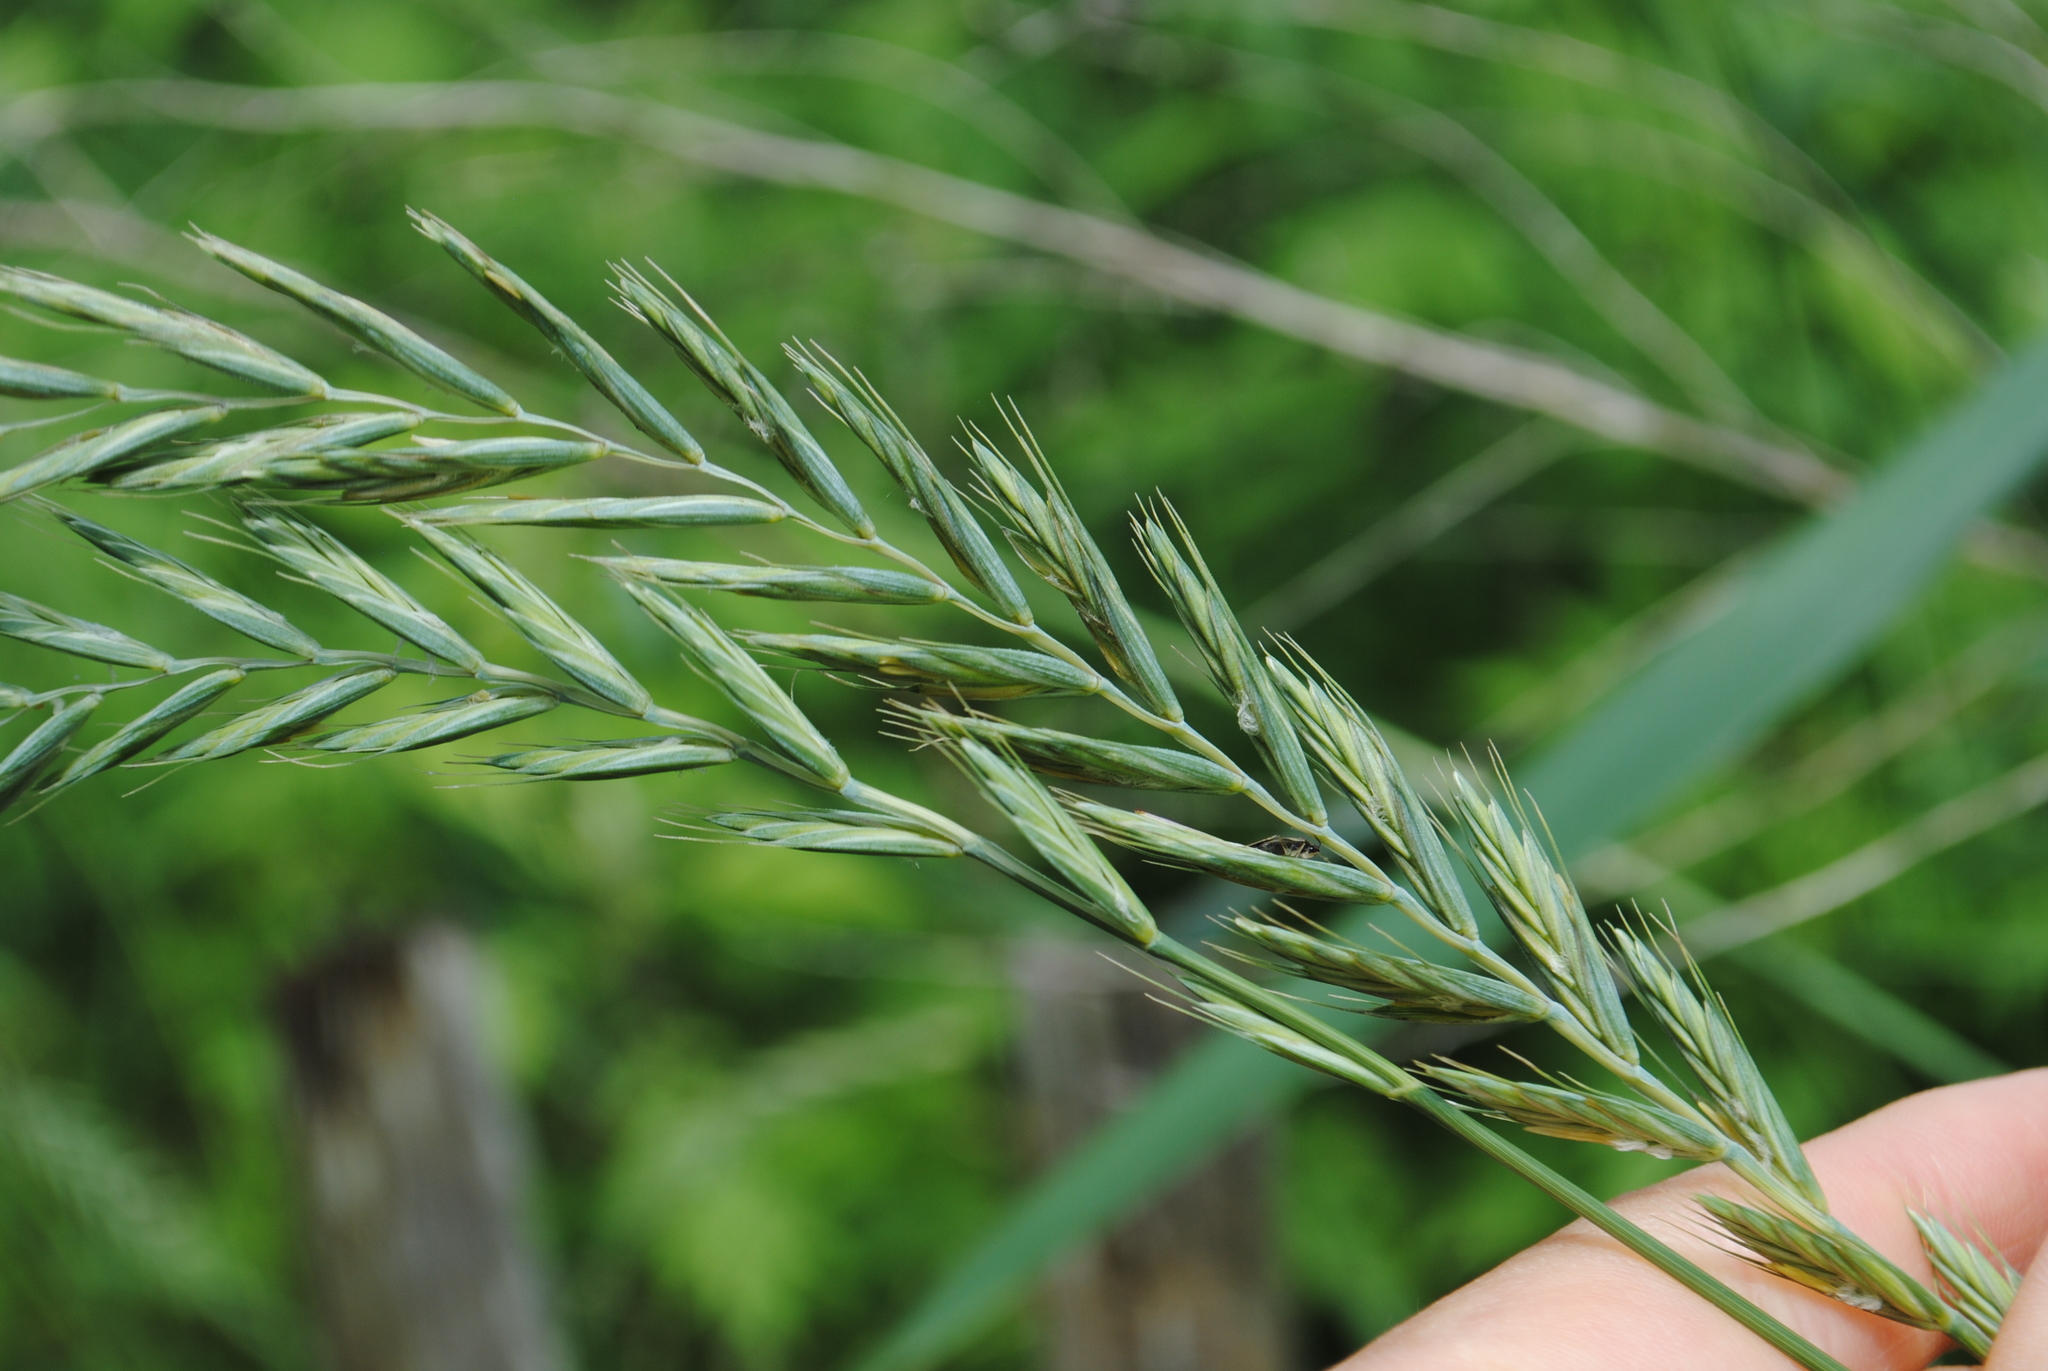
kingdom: Plantae
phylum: Tracheophyta
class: Liliopsida
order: Poales
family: Poaceae
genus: Elymus
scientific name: Elymus repens
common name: Quackgrass
